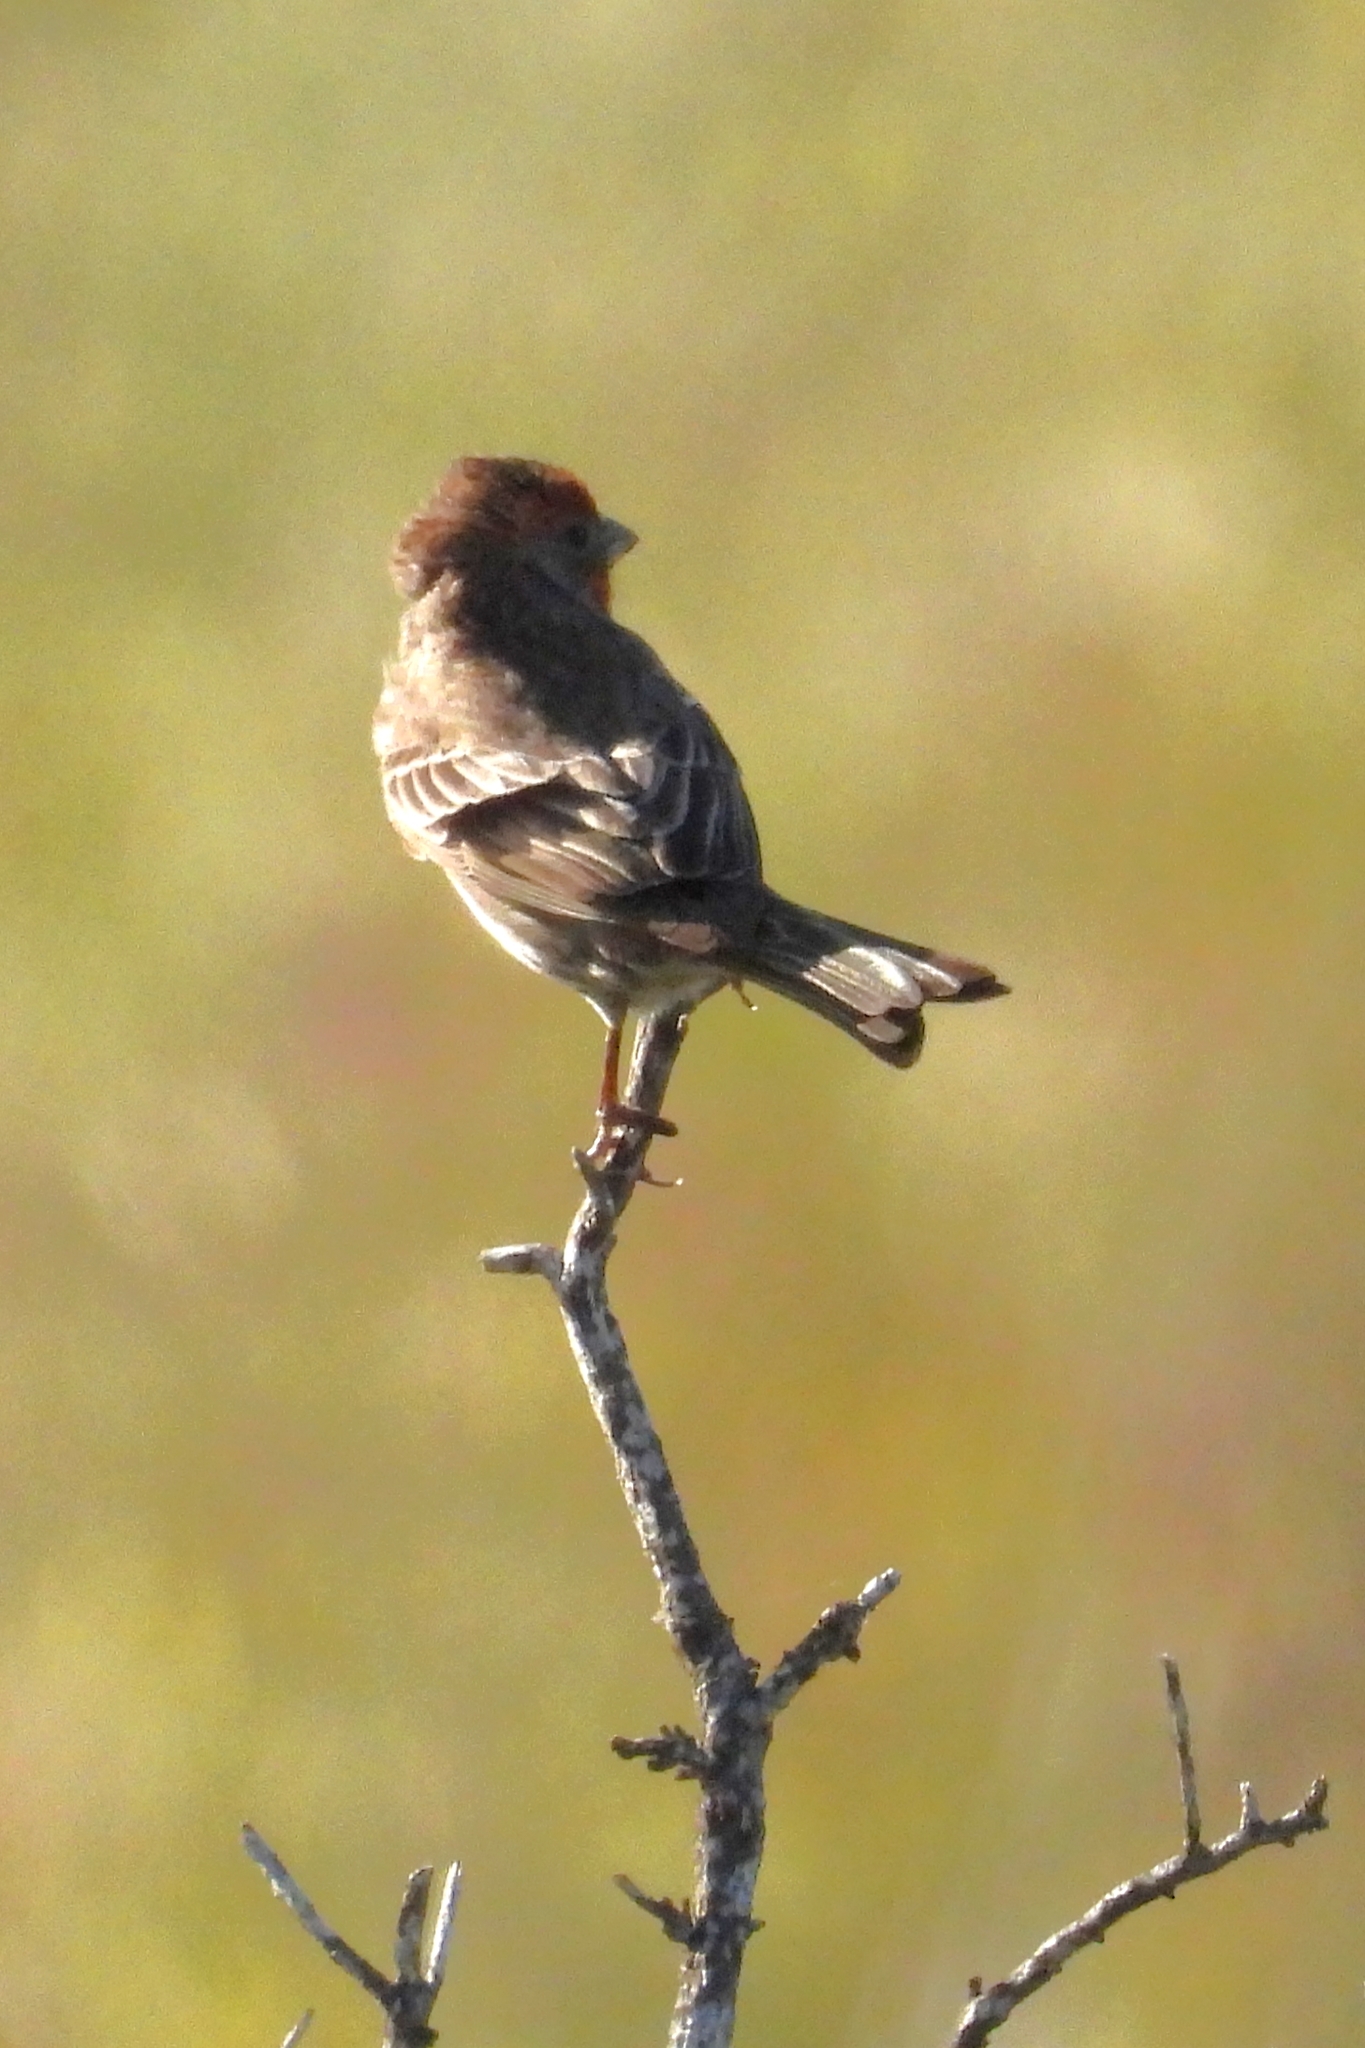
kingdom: Animalia
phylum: Chordata
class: Aves
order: Passeriformes
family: Fringillidae
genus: Haemorhous
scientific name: Haemorhous mexicanus
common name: House finch
